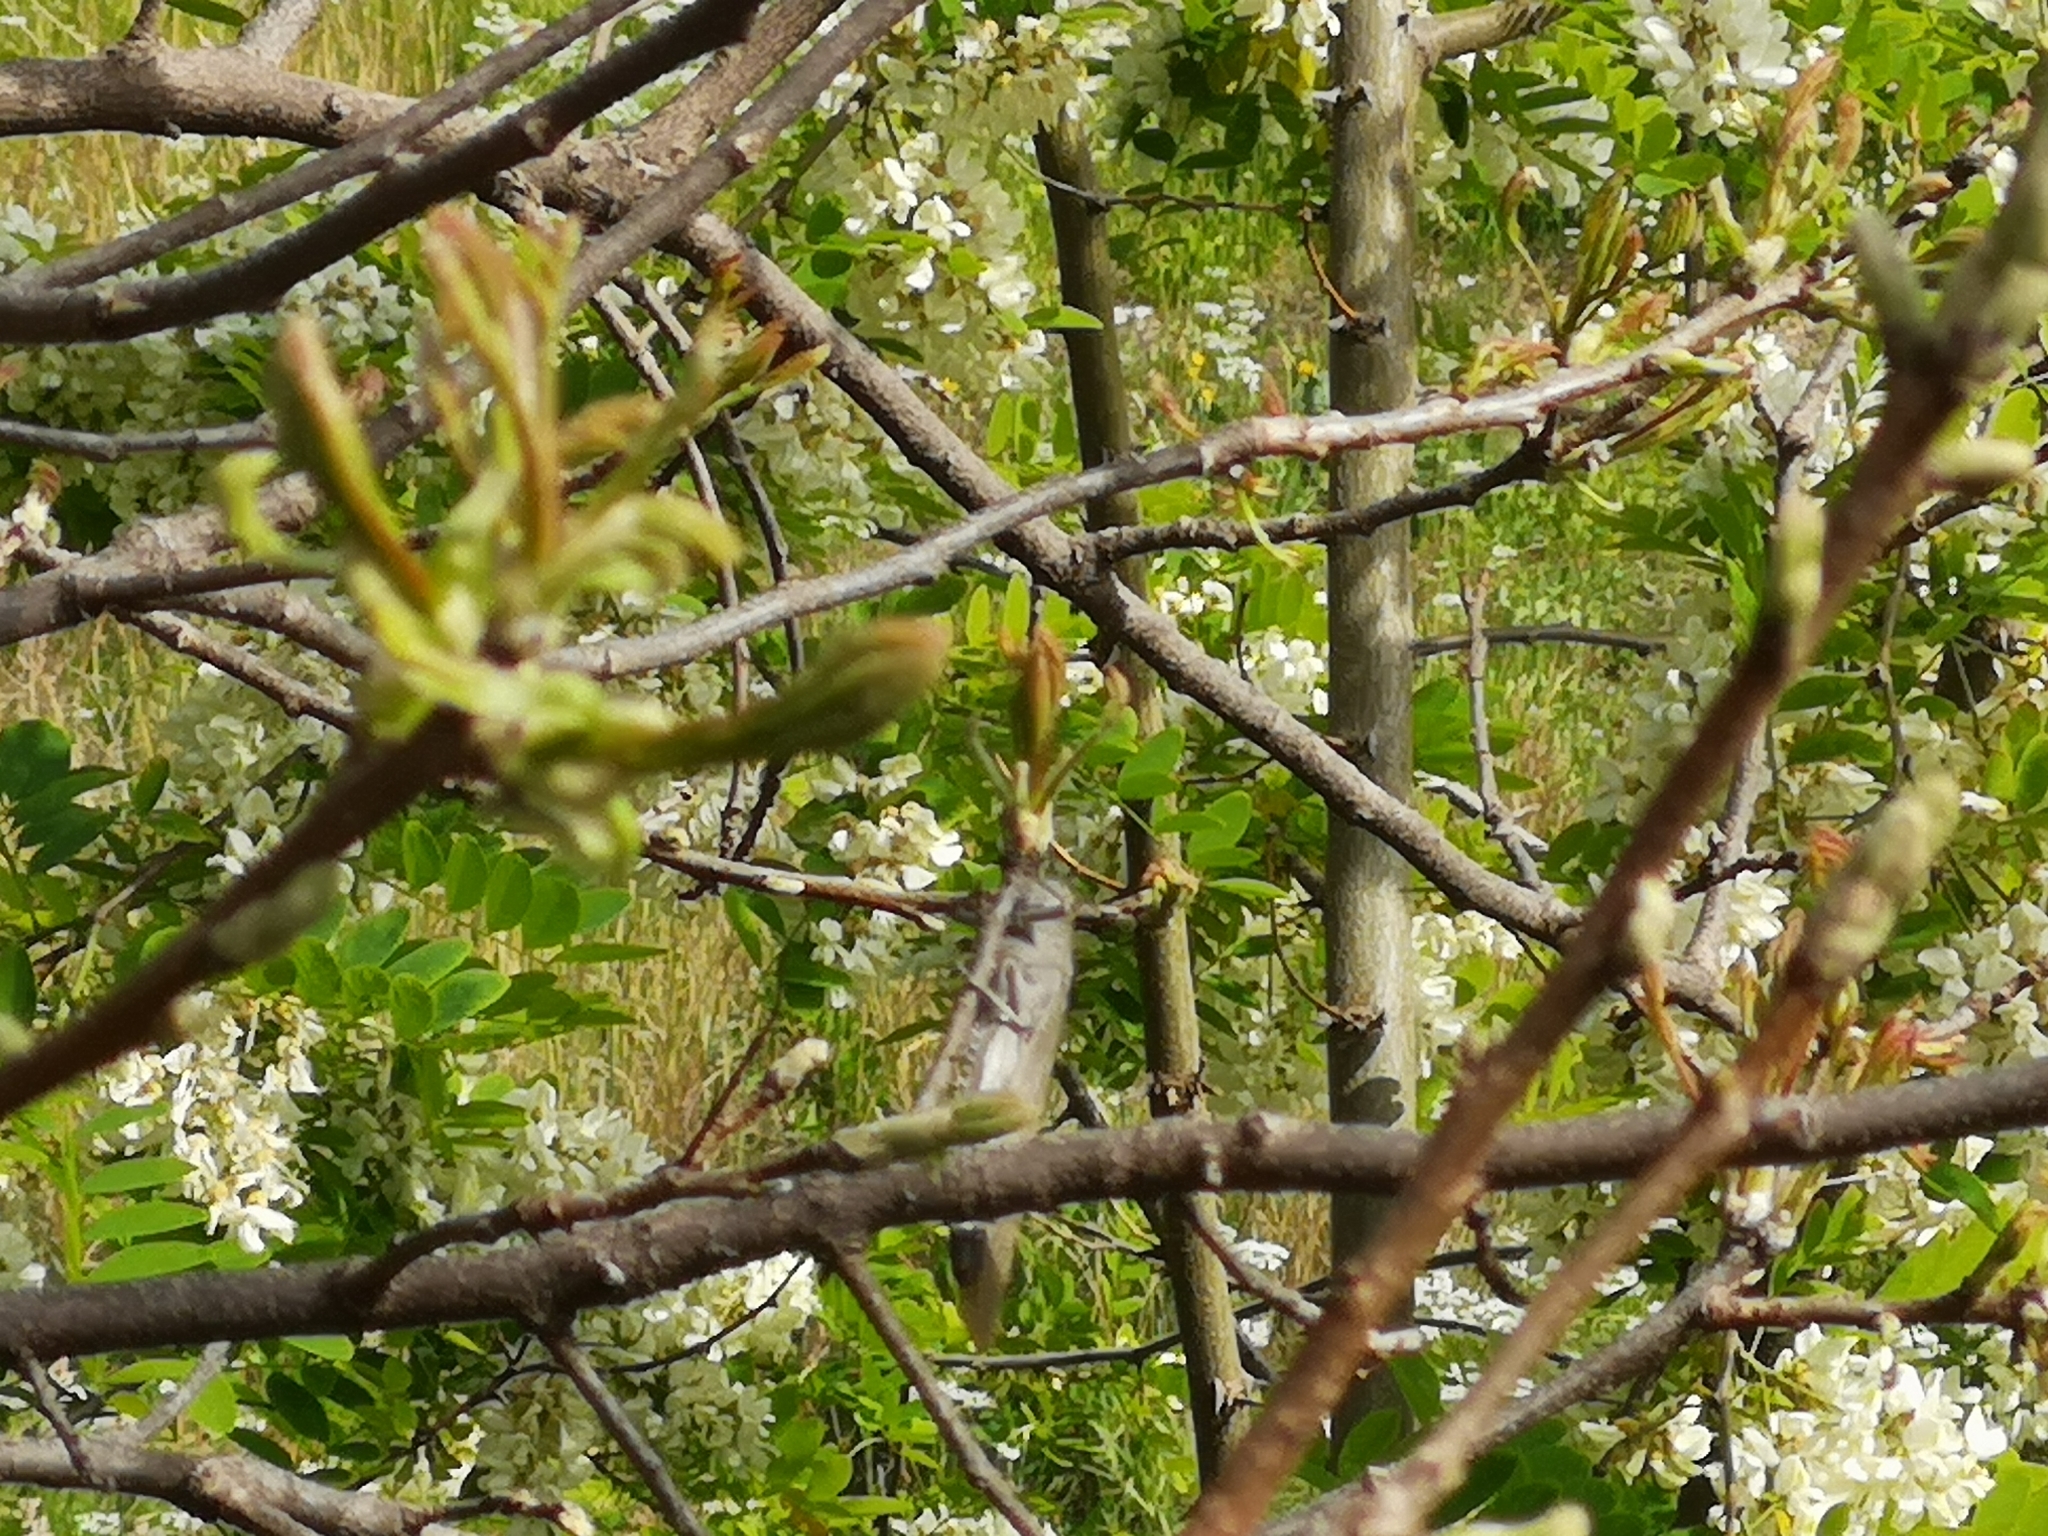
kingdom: Animalia
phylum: Arthropoda
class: Insecta
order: Orthoptera
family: Acrididae
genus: Anacridium
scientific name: Anacridium aegyptium
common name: Egyptian grasshopper
